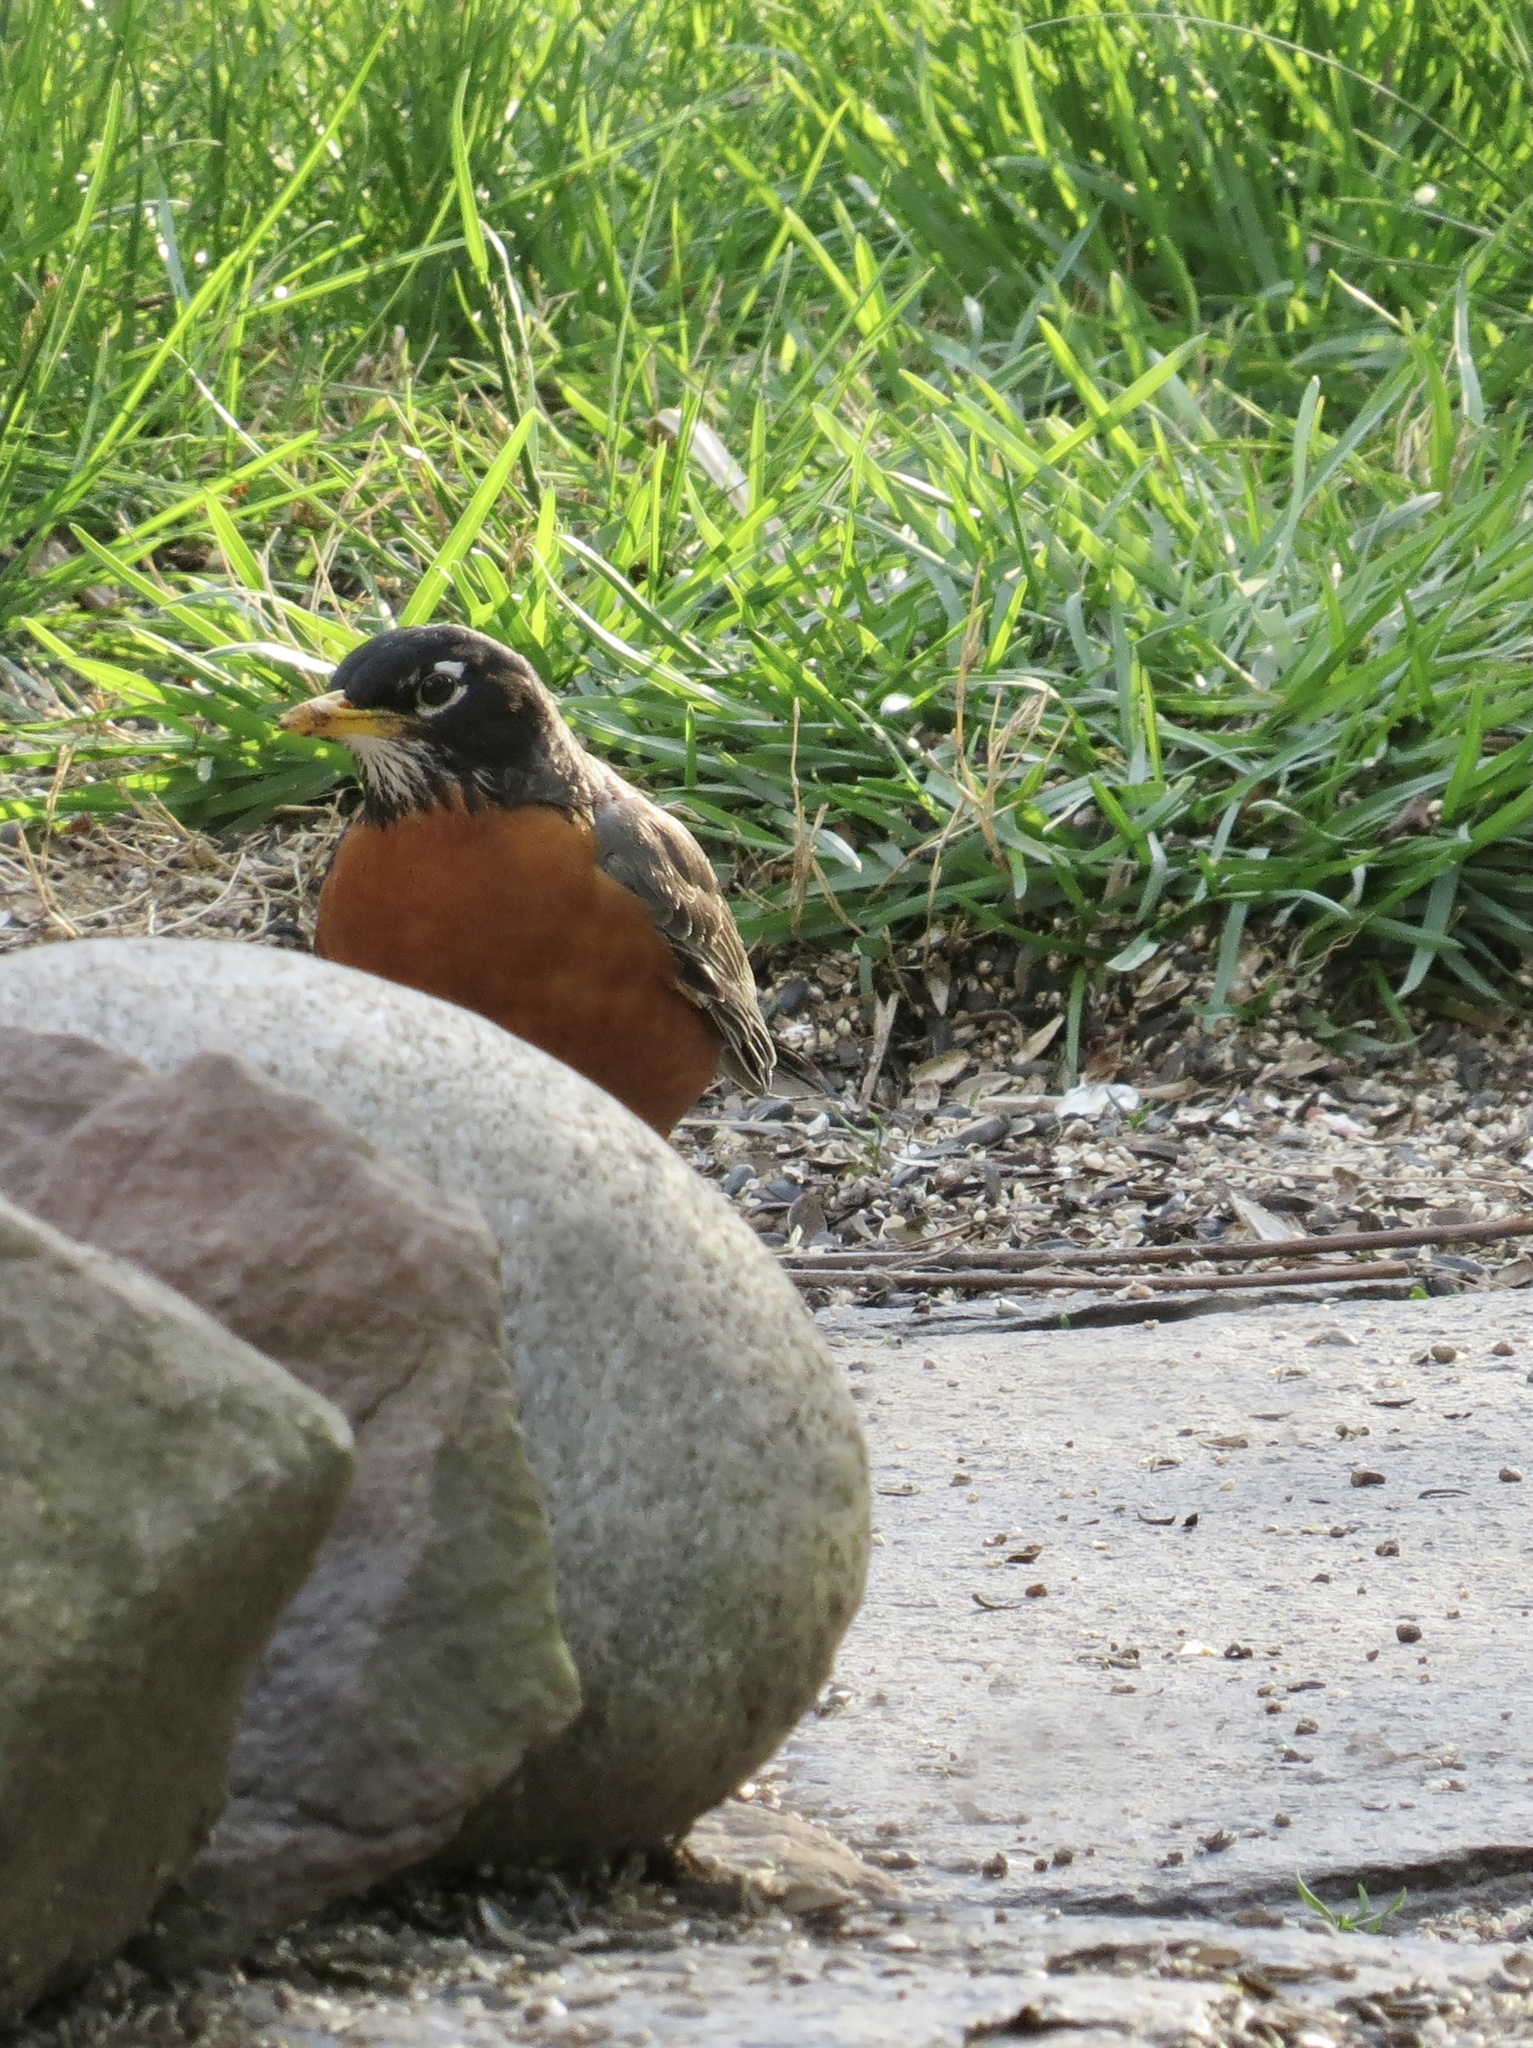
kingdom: Animalia
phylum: Chordata
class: Aves
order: Passeriformes
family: Turdidae
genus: Turdus
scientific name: Turdus migratorius
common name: American robin
